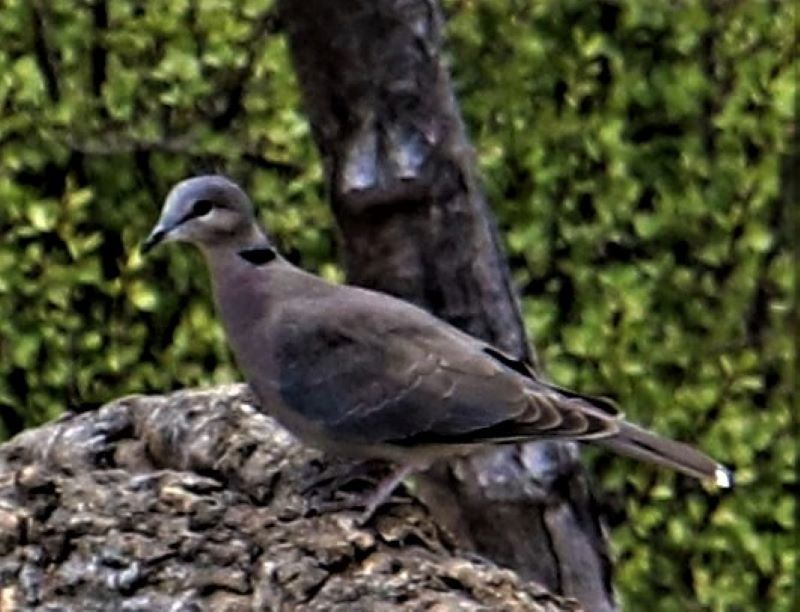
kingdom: Animalia
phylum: Chordata
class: Aves
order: Columbiformes
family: Columbidae
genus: Streptopelia
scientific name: Streptopelia capicola
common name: Ring-necked dove
